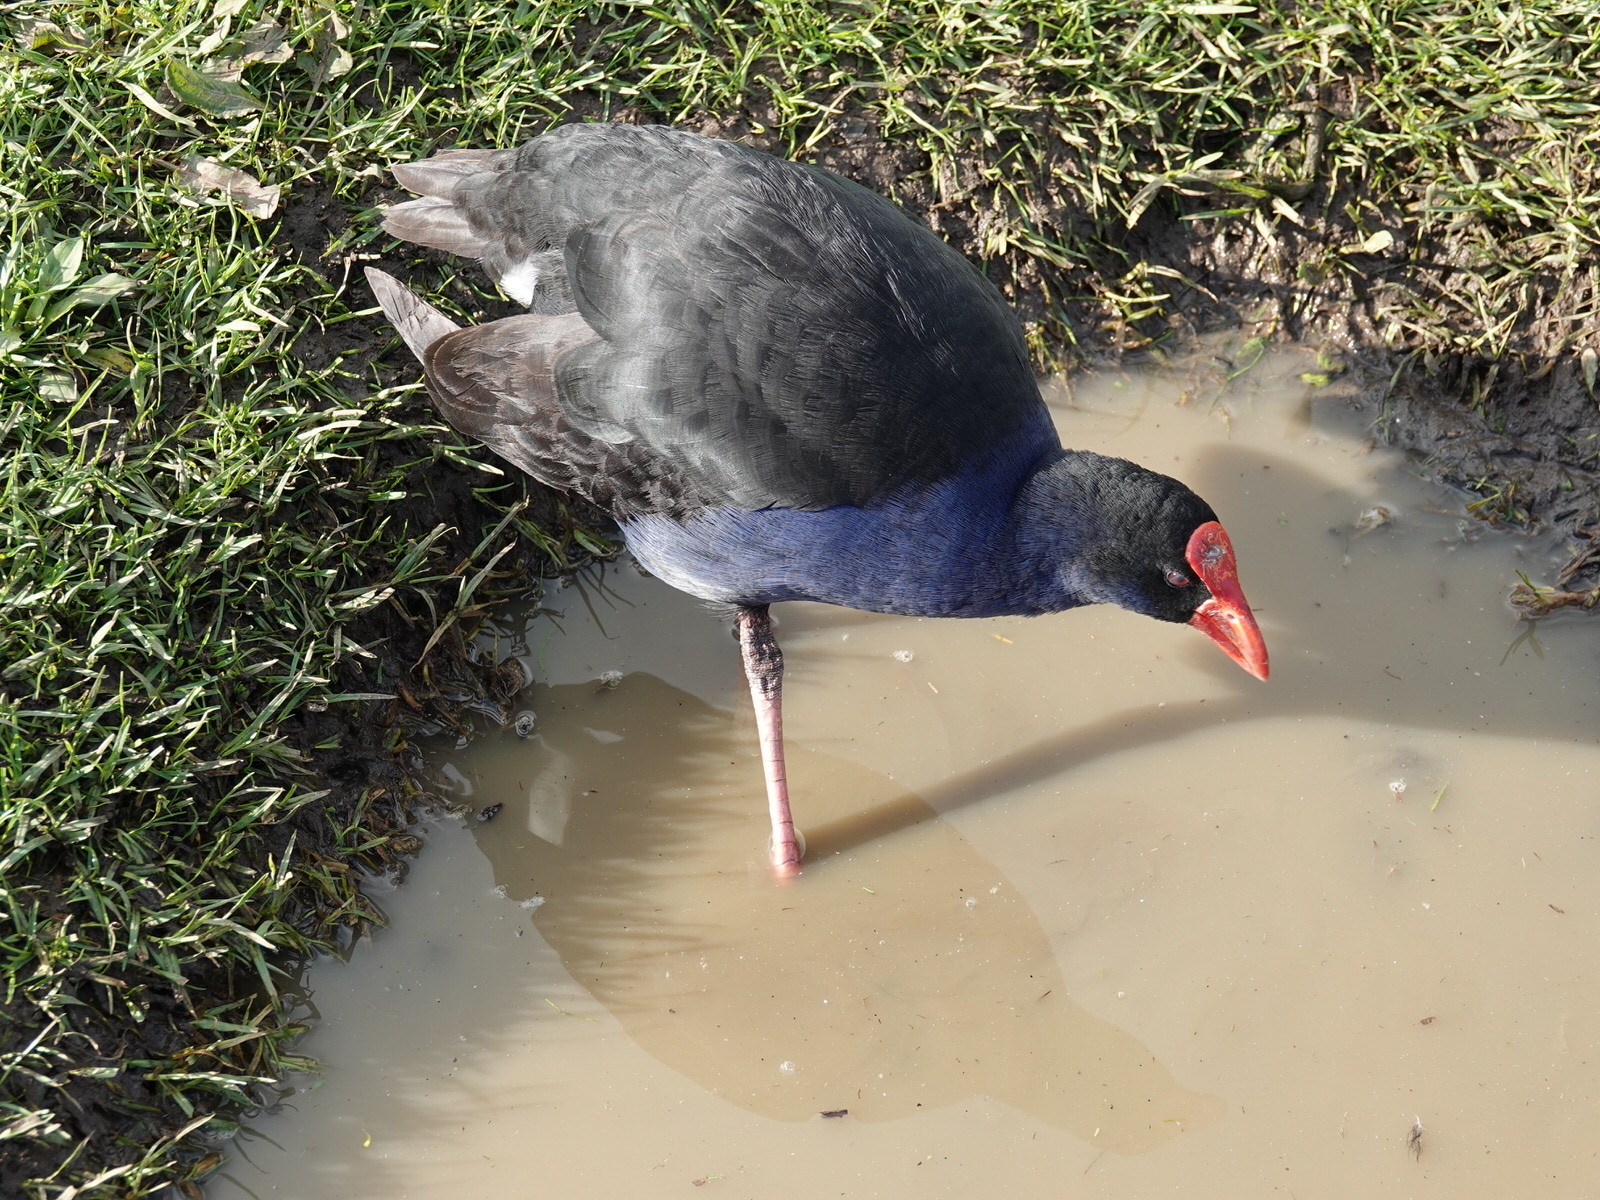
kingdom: Animalia
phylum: Chordata
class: Aves
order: Gruiformes
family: Rallidae
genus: Porphyrio
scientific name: Porphyrio melanotus
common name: Australasian swamphen
